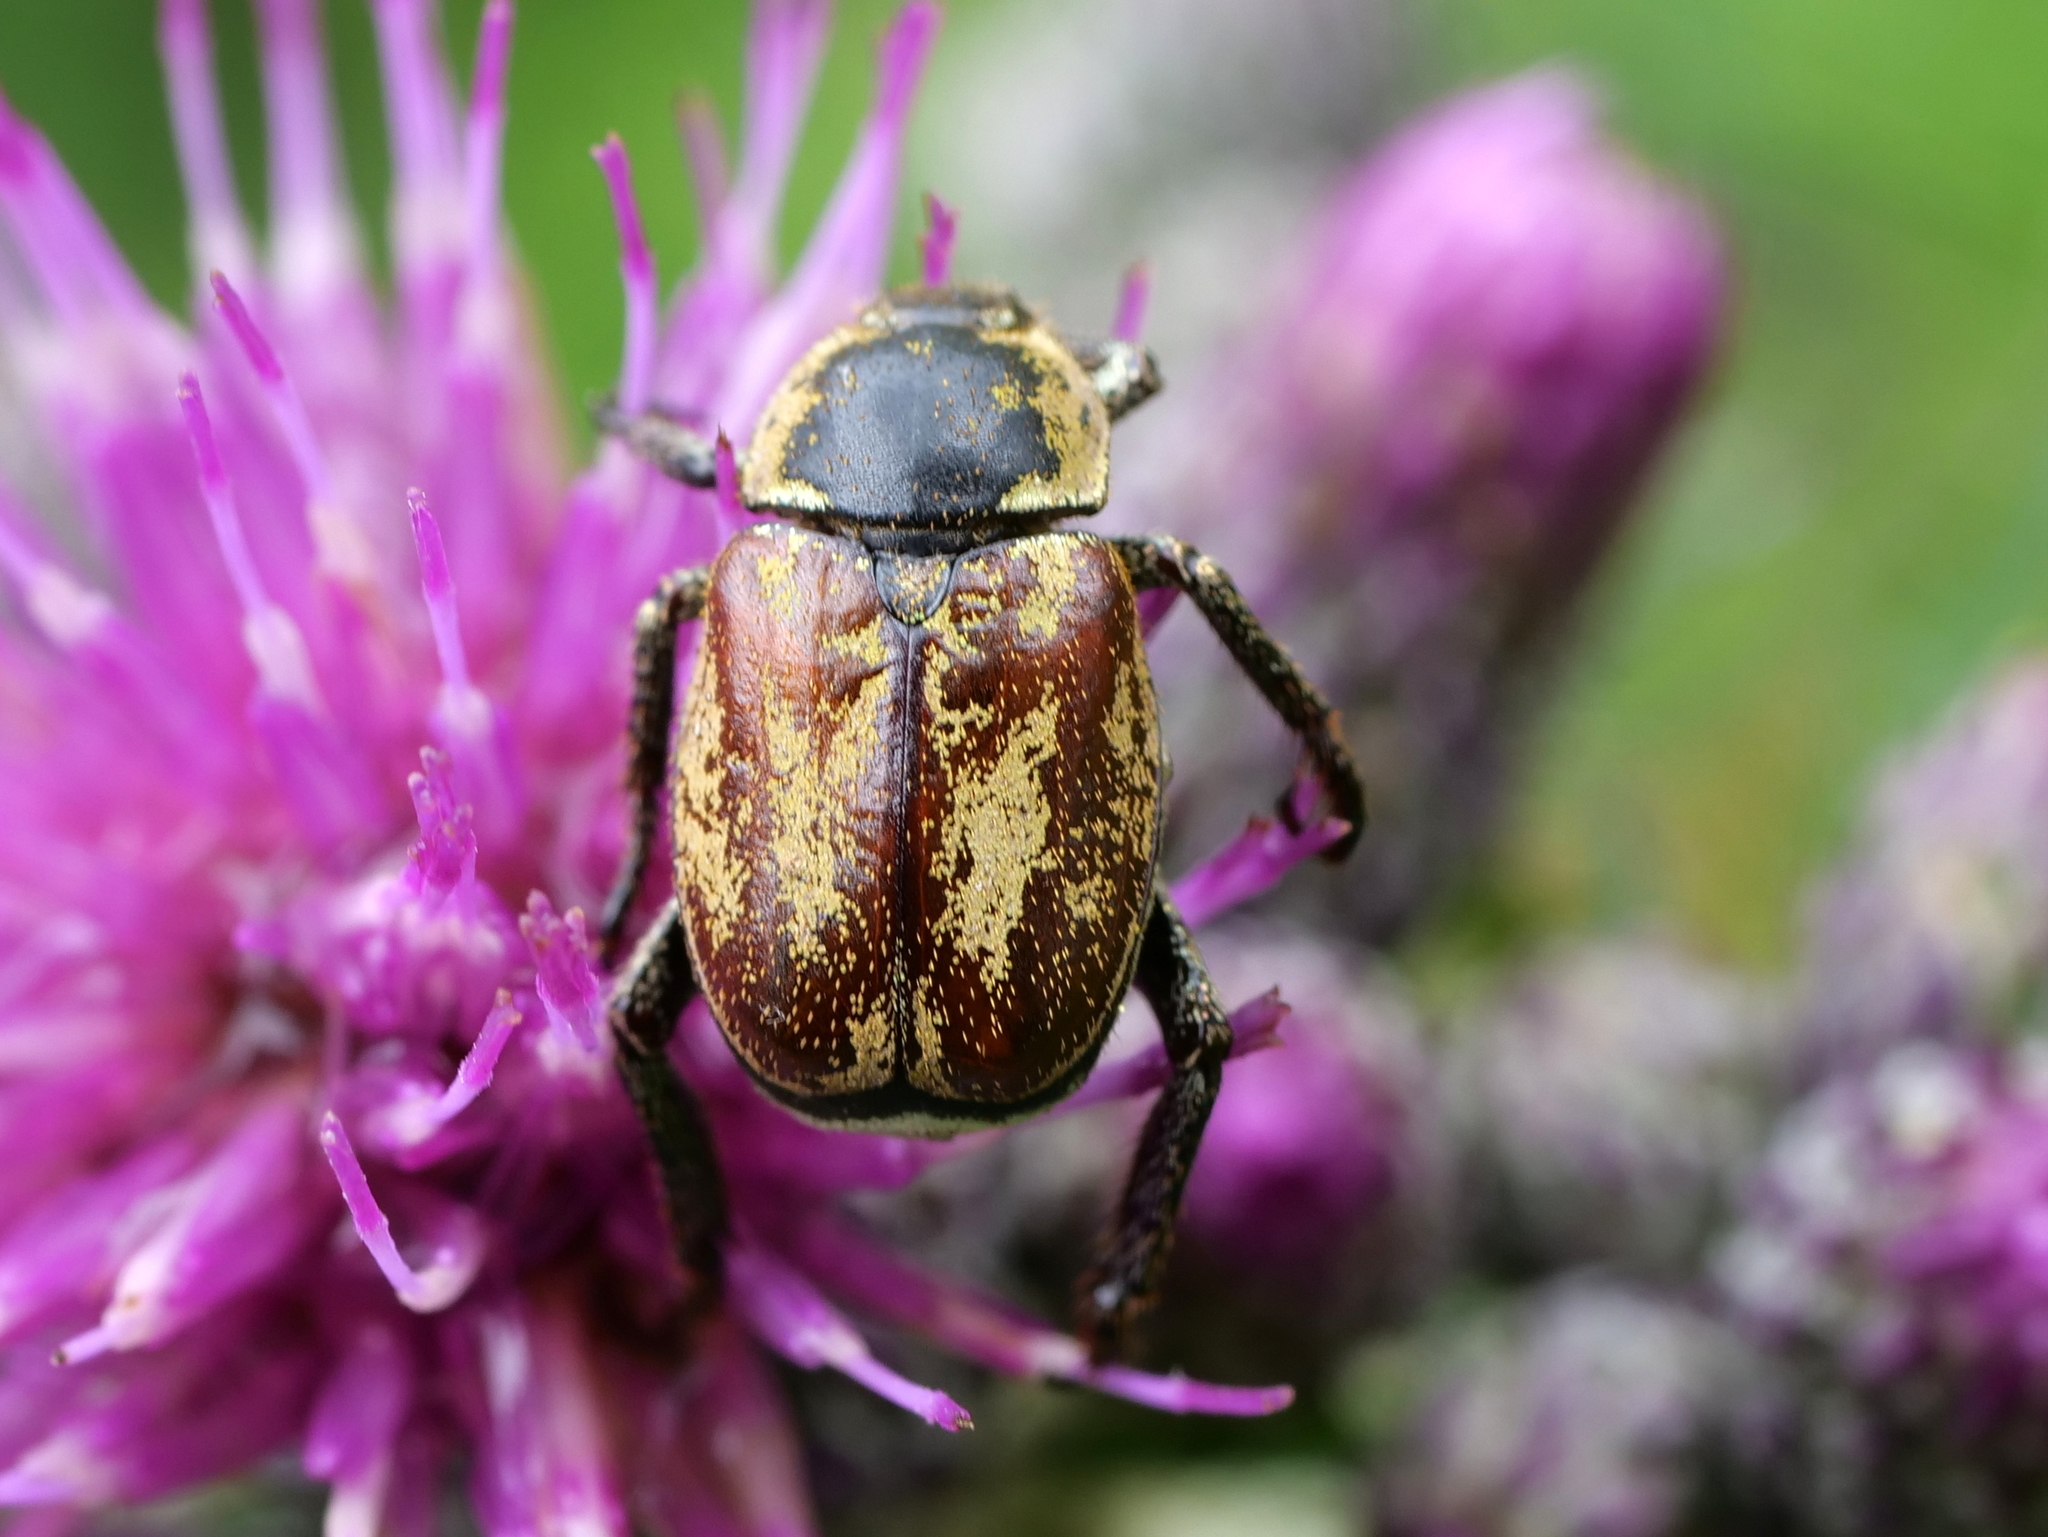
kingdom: Animalia
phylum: Arthropoda
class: Insecta
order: Coleoptera
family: Scarabaeidae
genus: Hoplia
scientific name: Hoplia argentea
